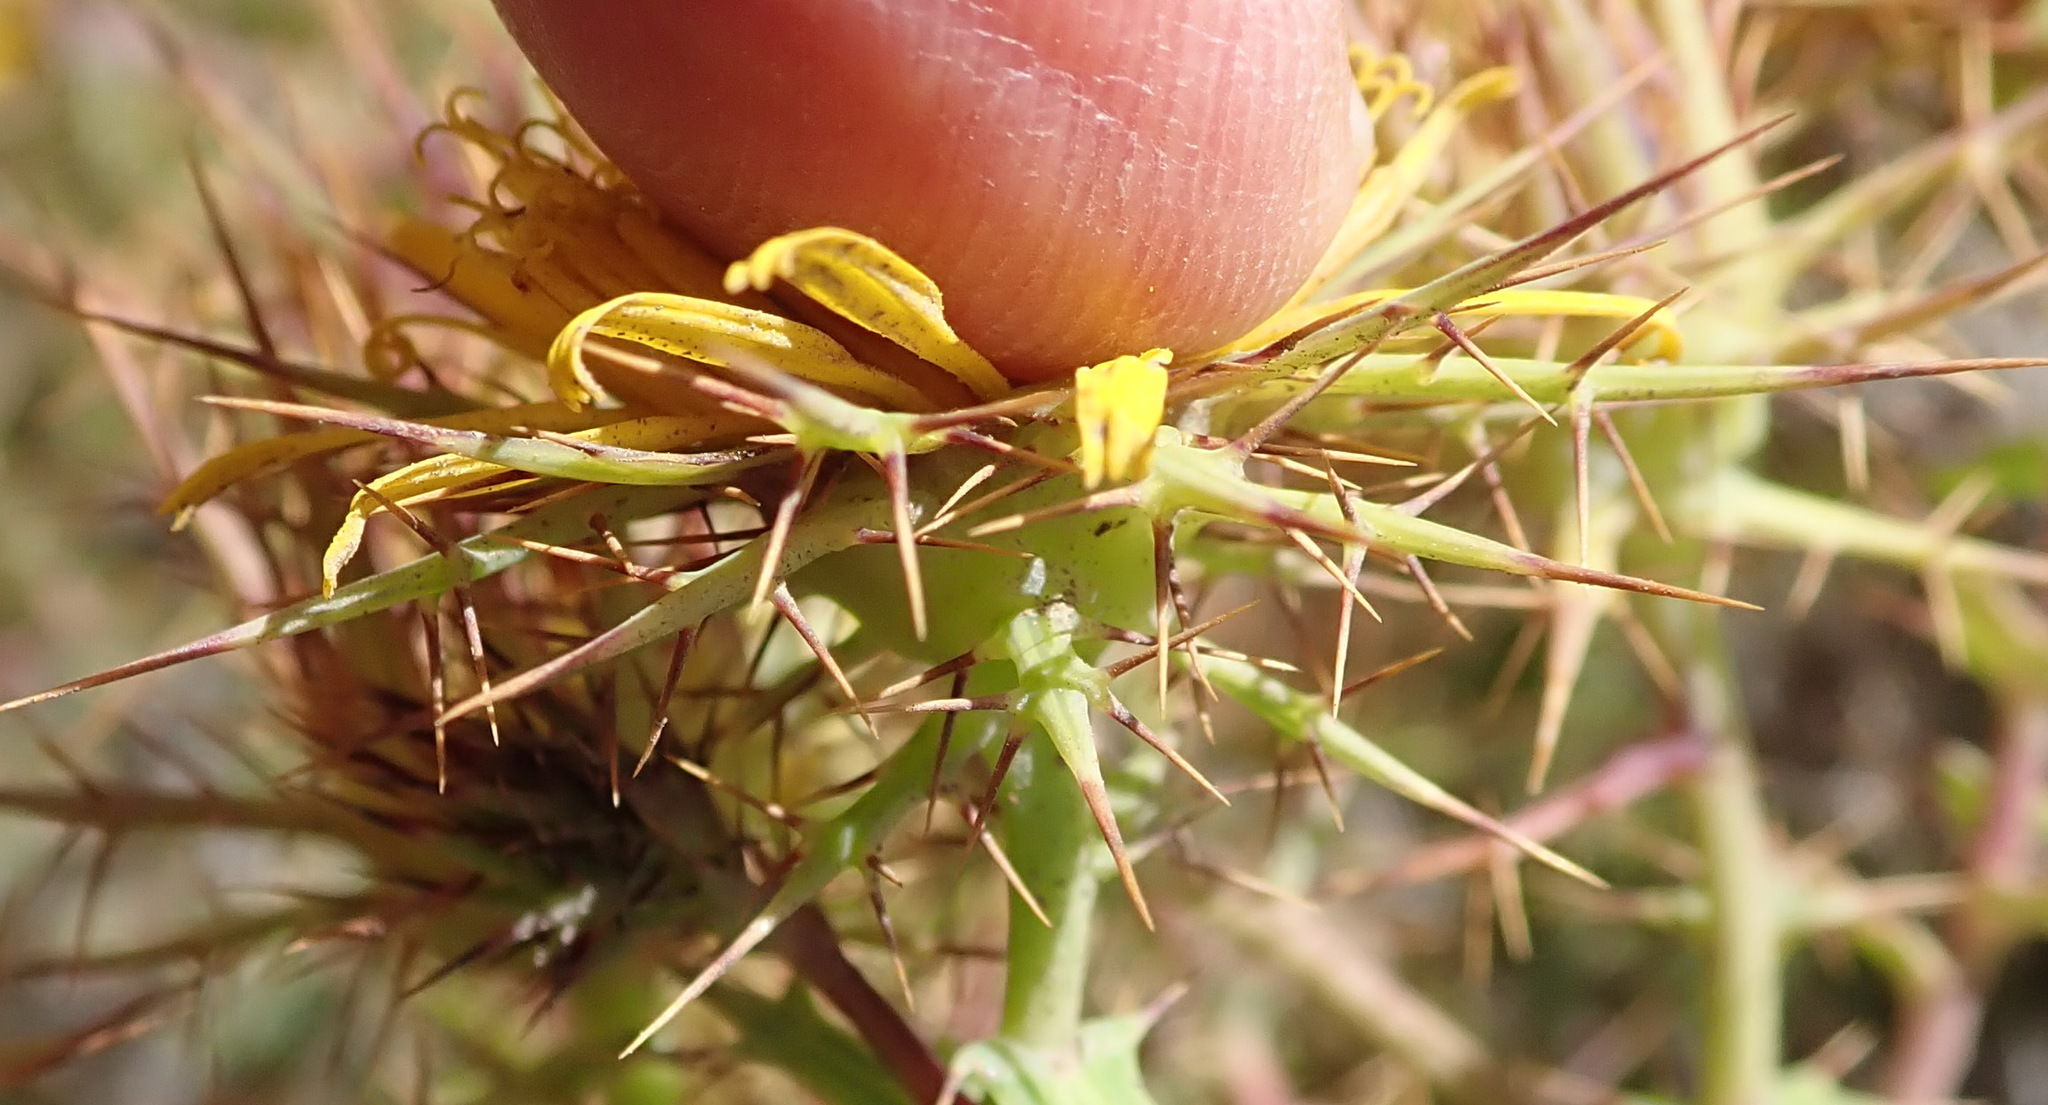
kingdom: Plantae
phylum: Tracheophyta
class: Magnoliopsida
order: Asterales
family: Asteraceae
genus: Berkheya
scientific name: Berkheya cruciata
